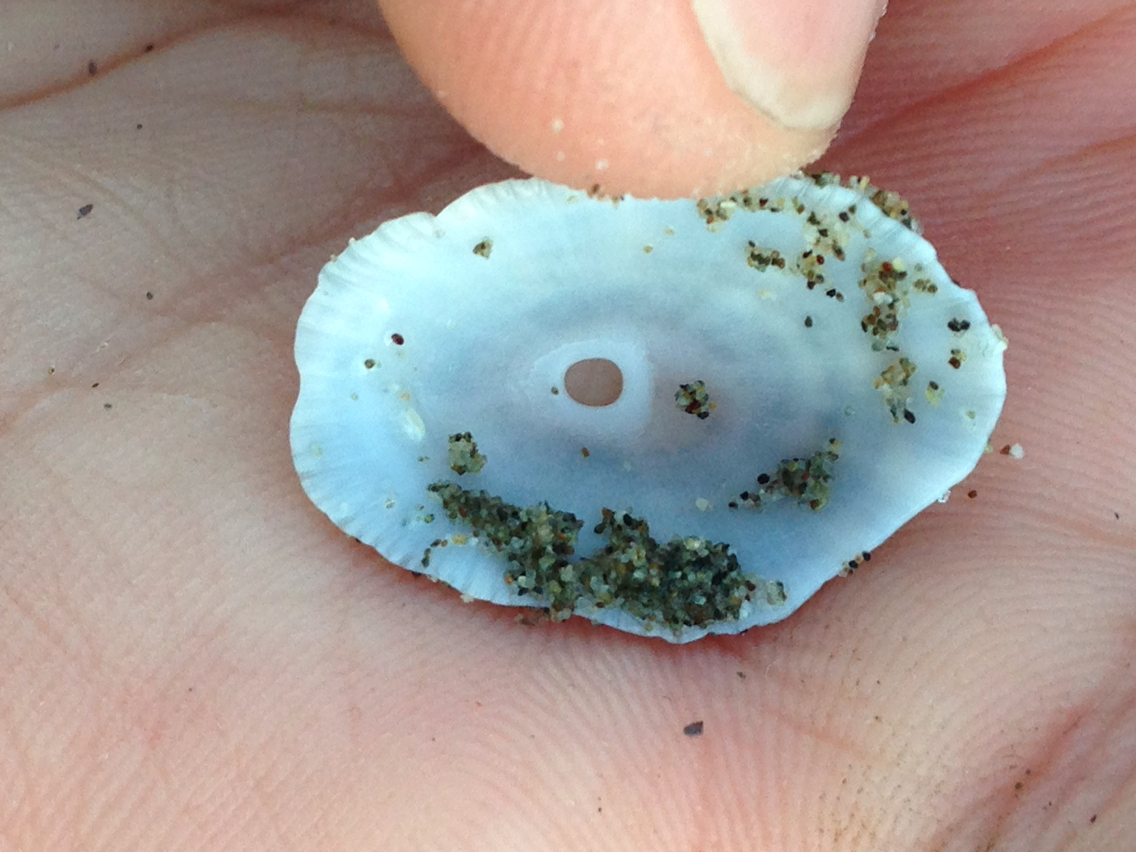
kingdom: Animalia
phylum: Mollusca
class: Gastropoda
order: Lepetellida
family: Fissurellidae
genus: Diodora
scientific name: Diodora aspera
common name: Rough keyhole limpet
